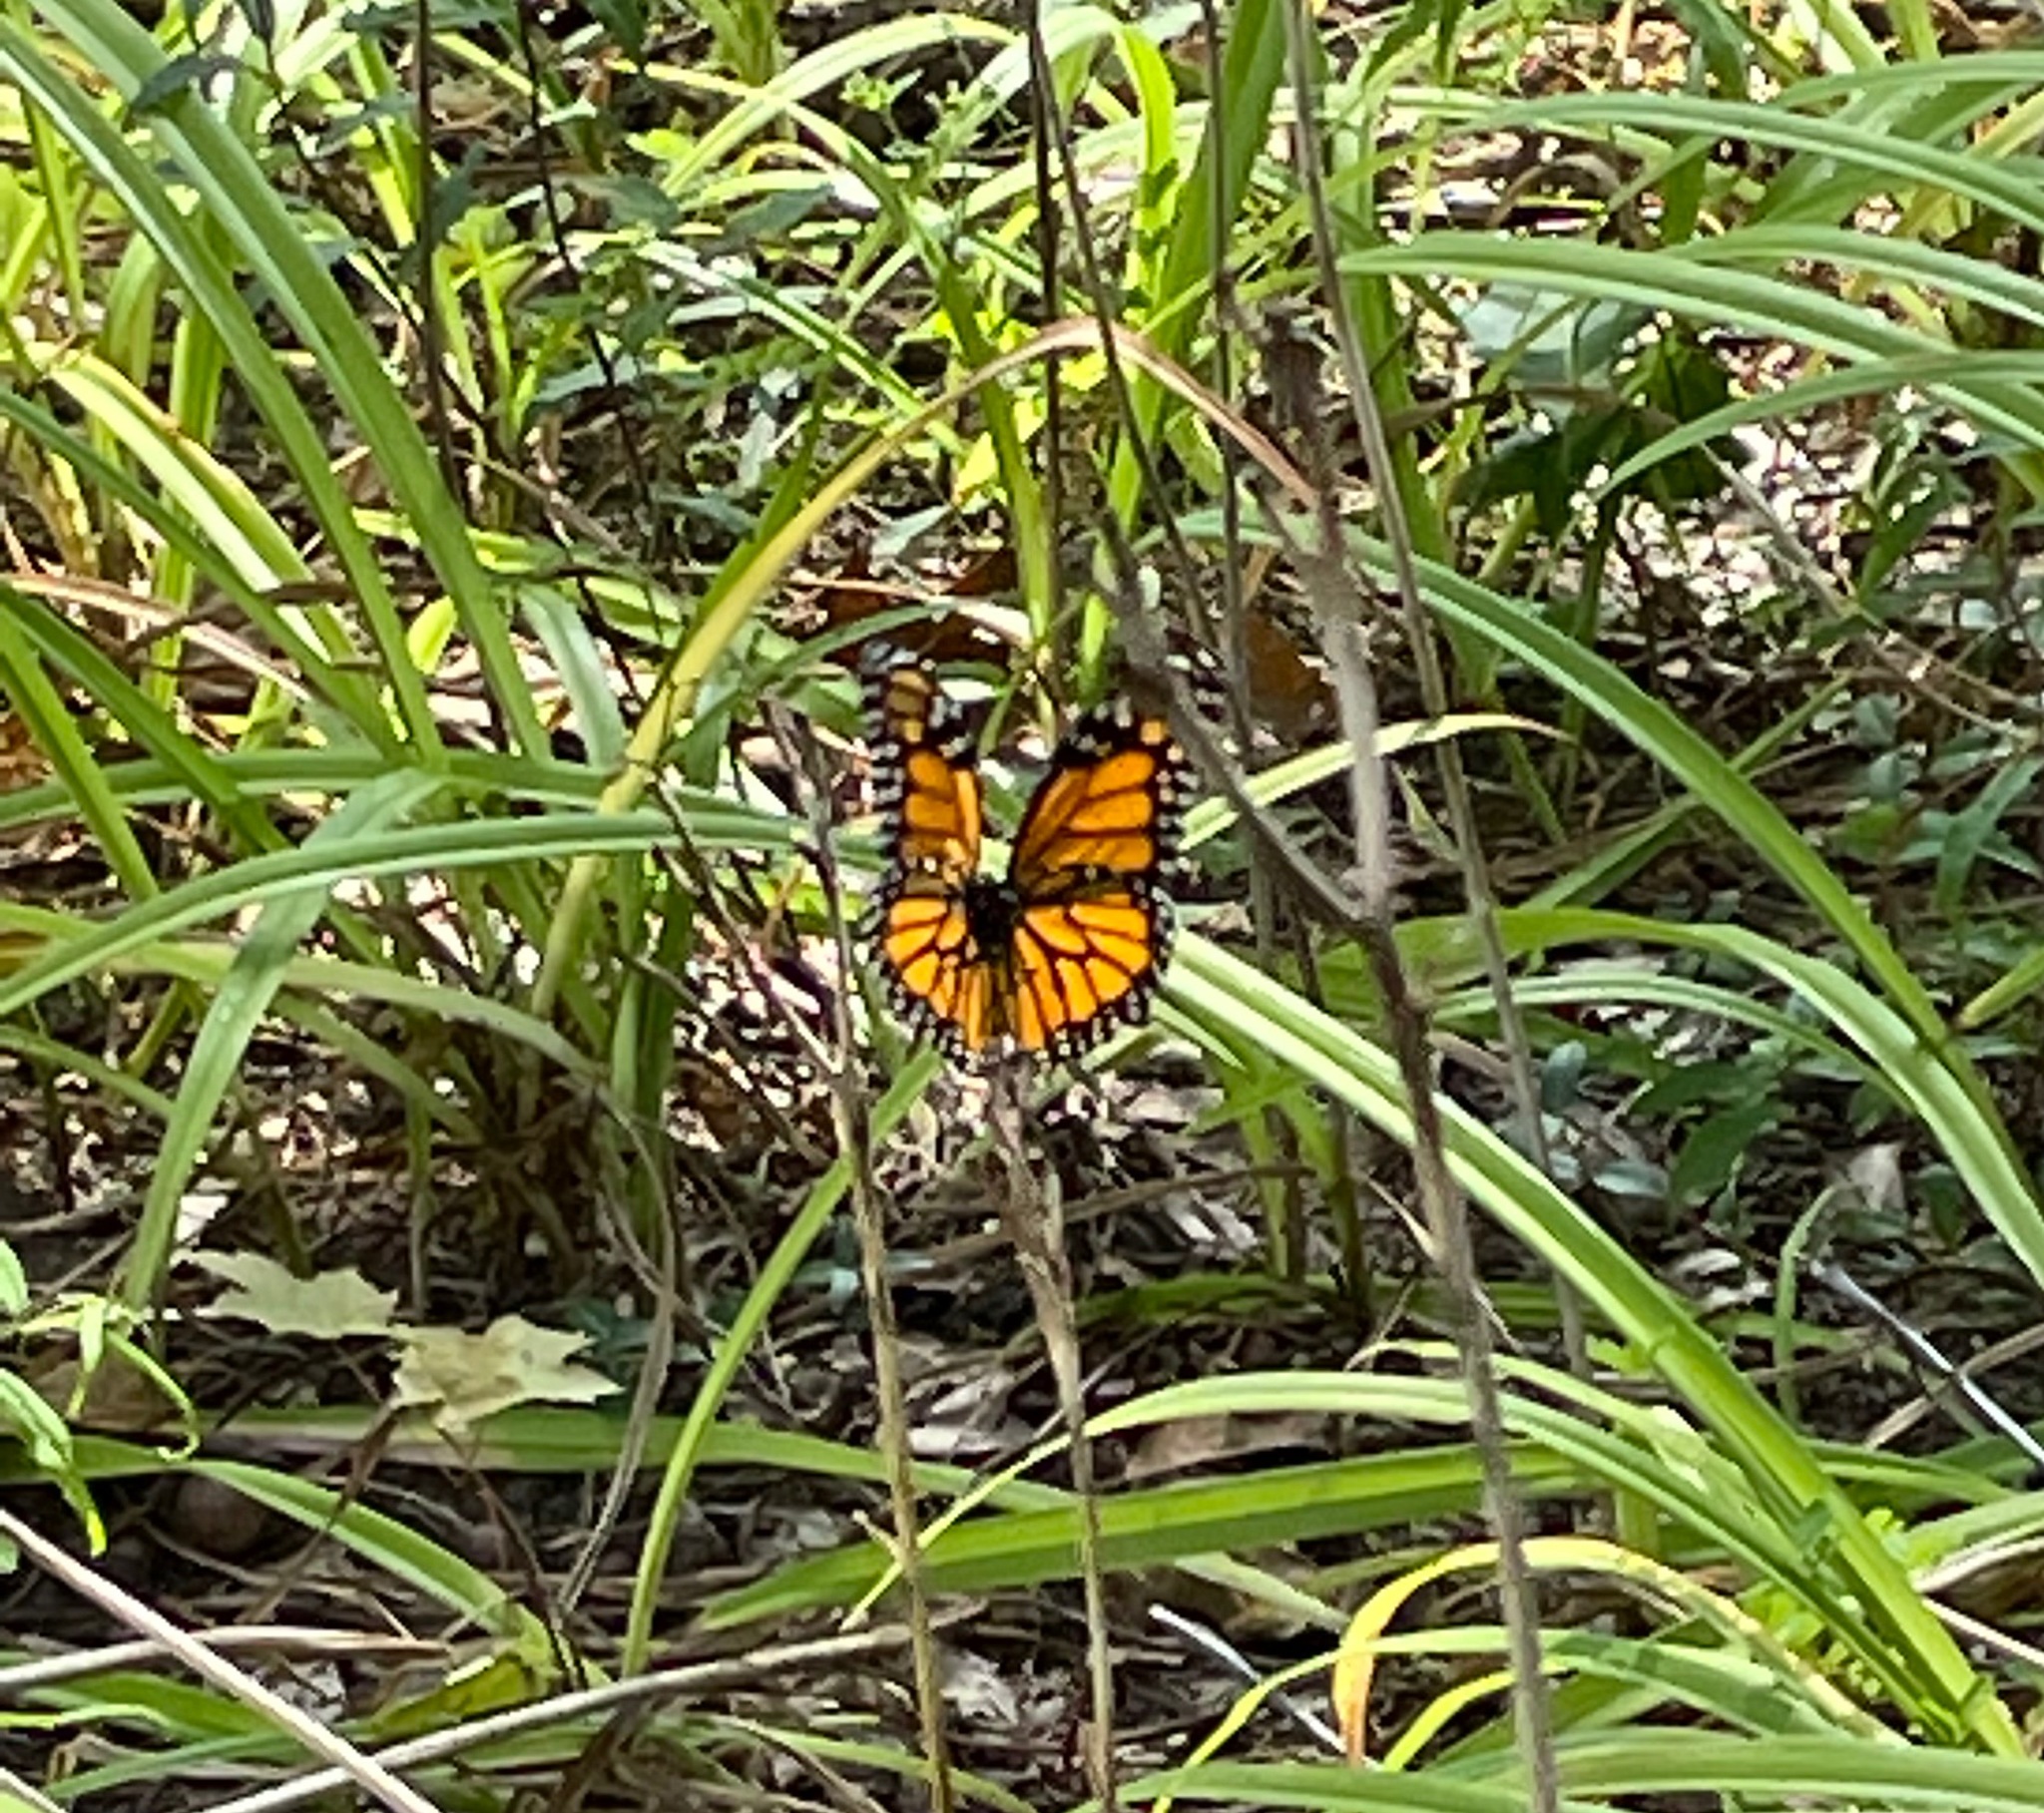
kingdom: Animalia
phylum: Arthropoda
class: Insecta
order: Lepidoptera
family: Nymphalidae
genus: Danaus
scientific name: Danaus plexippus
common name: Monarch
